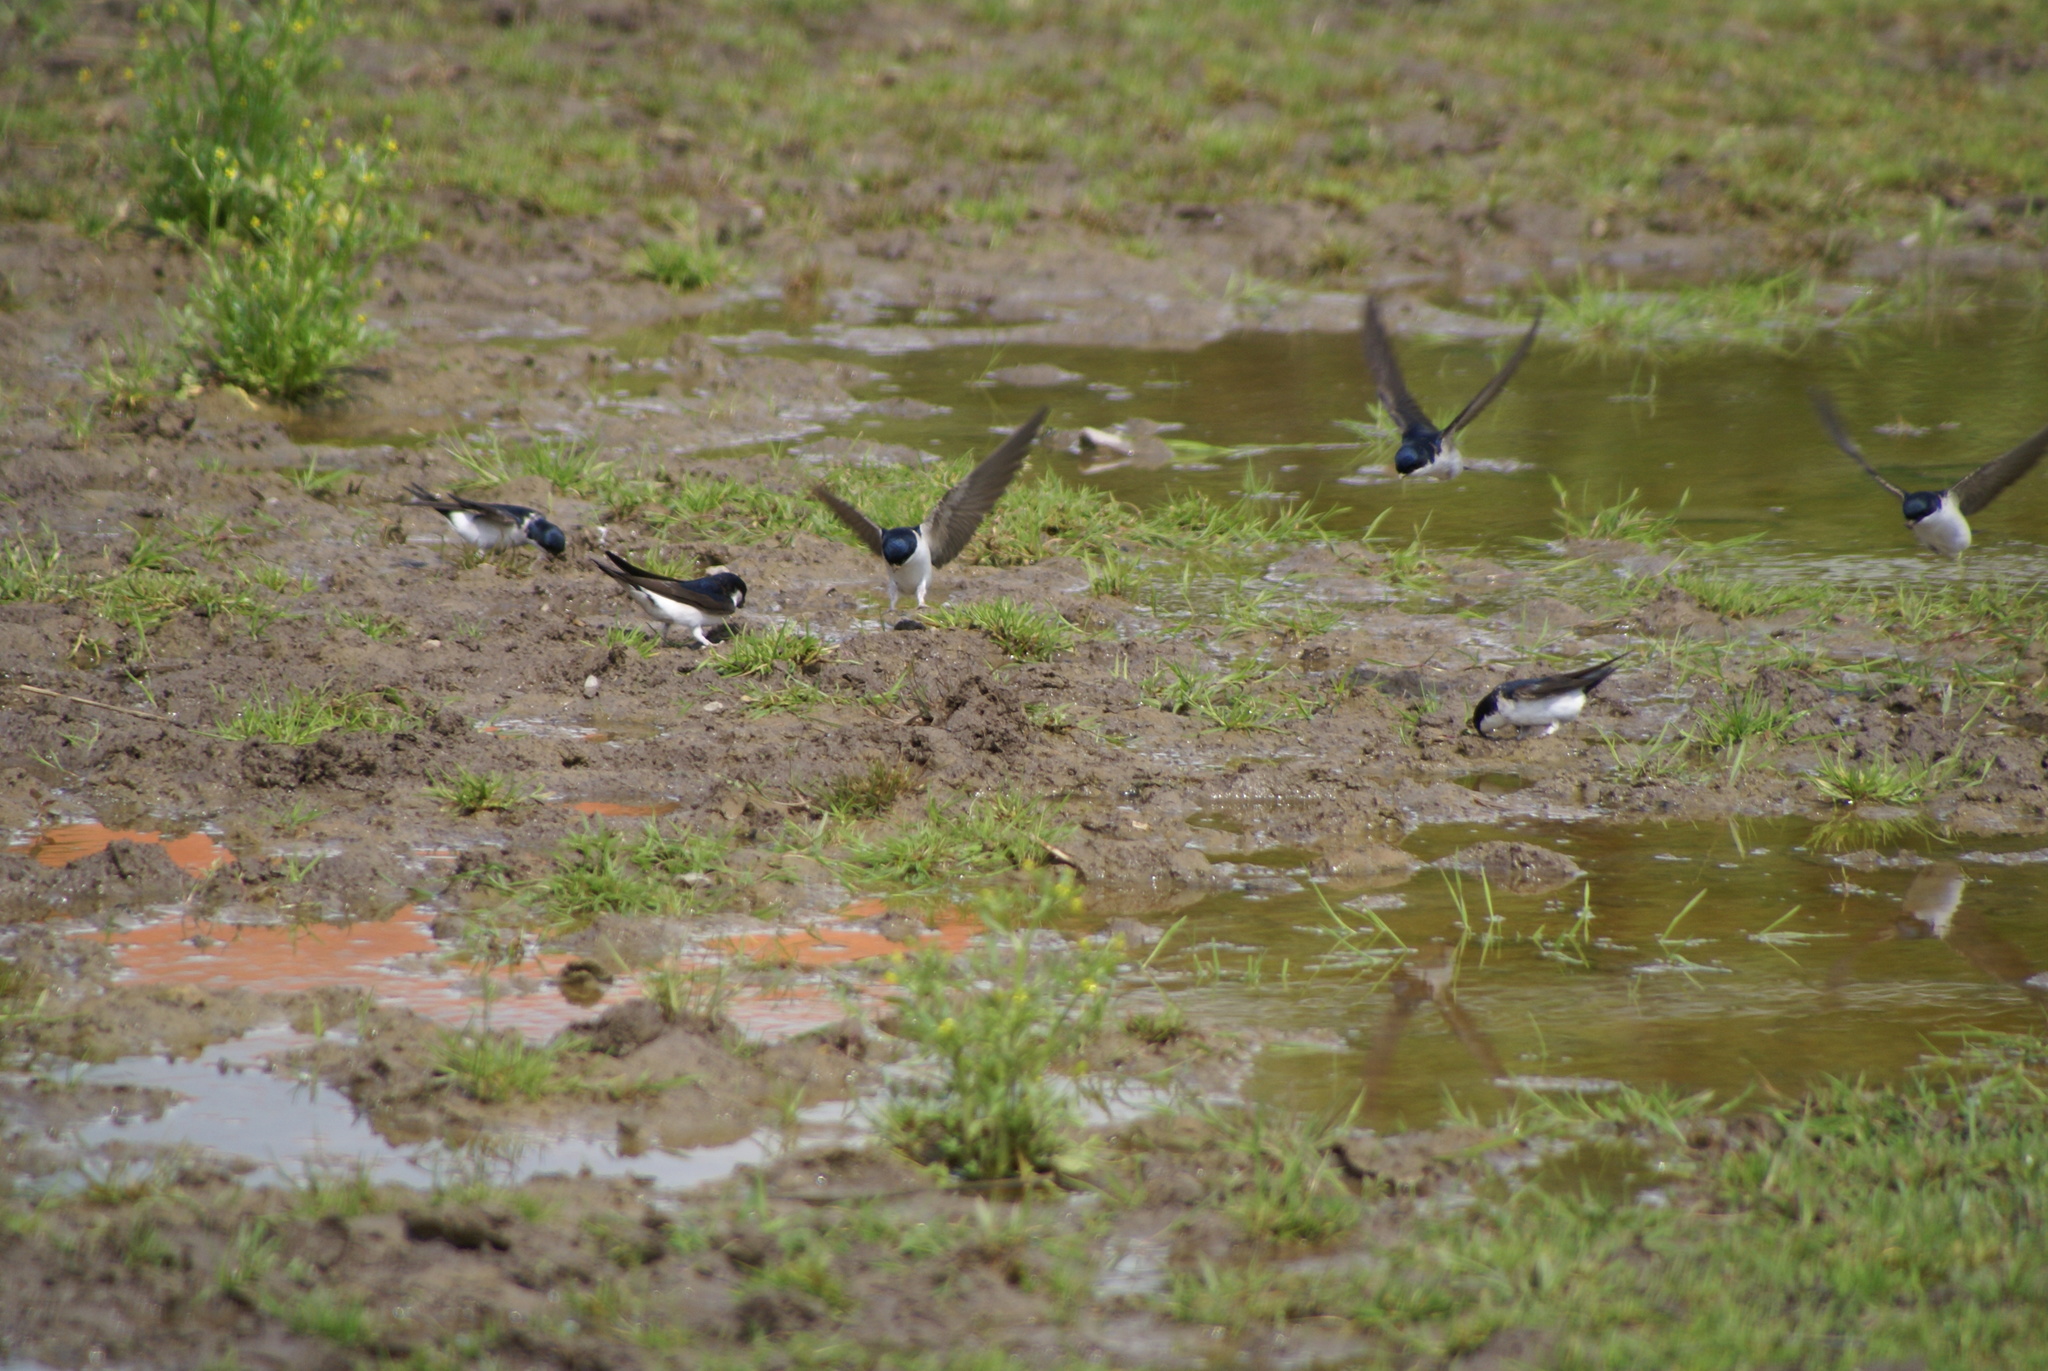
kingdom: Animalia
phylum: Chordata
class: Aves
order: Passeriformes
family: Hirundinidae
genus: Delichon
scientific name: Delichon urbicum
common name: Common house martin
